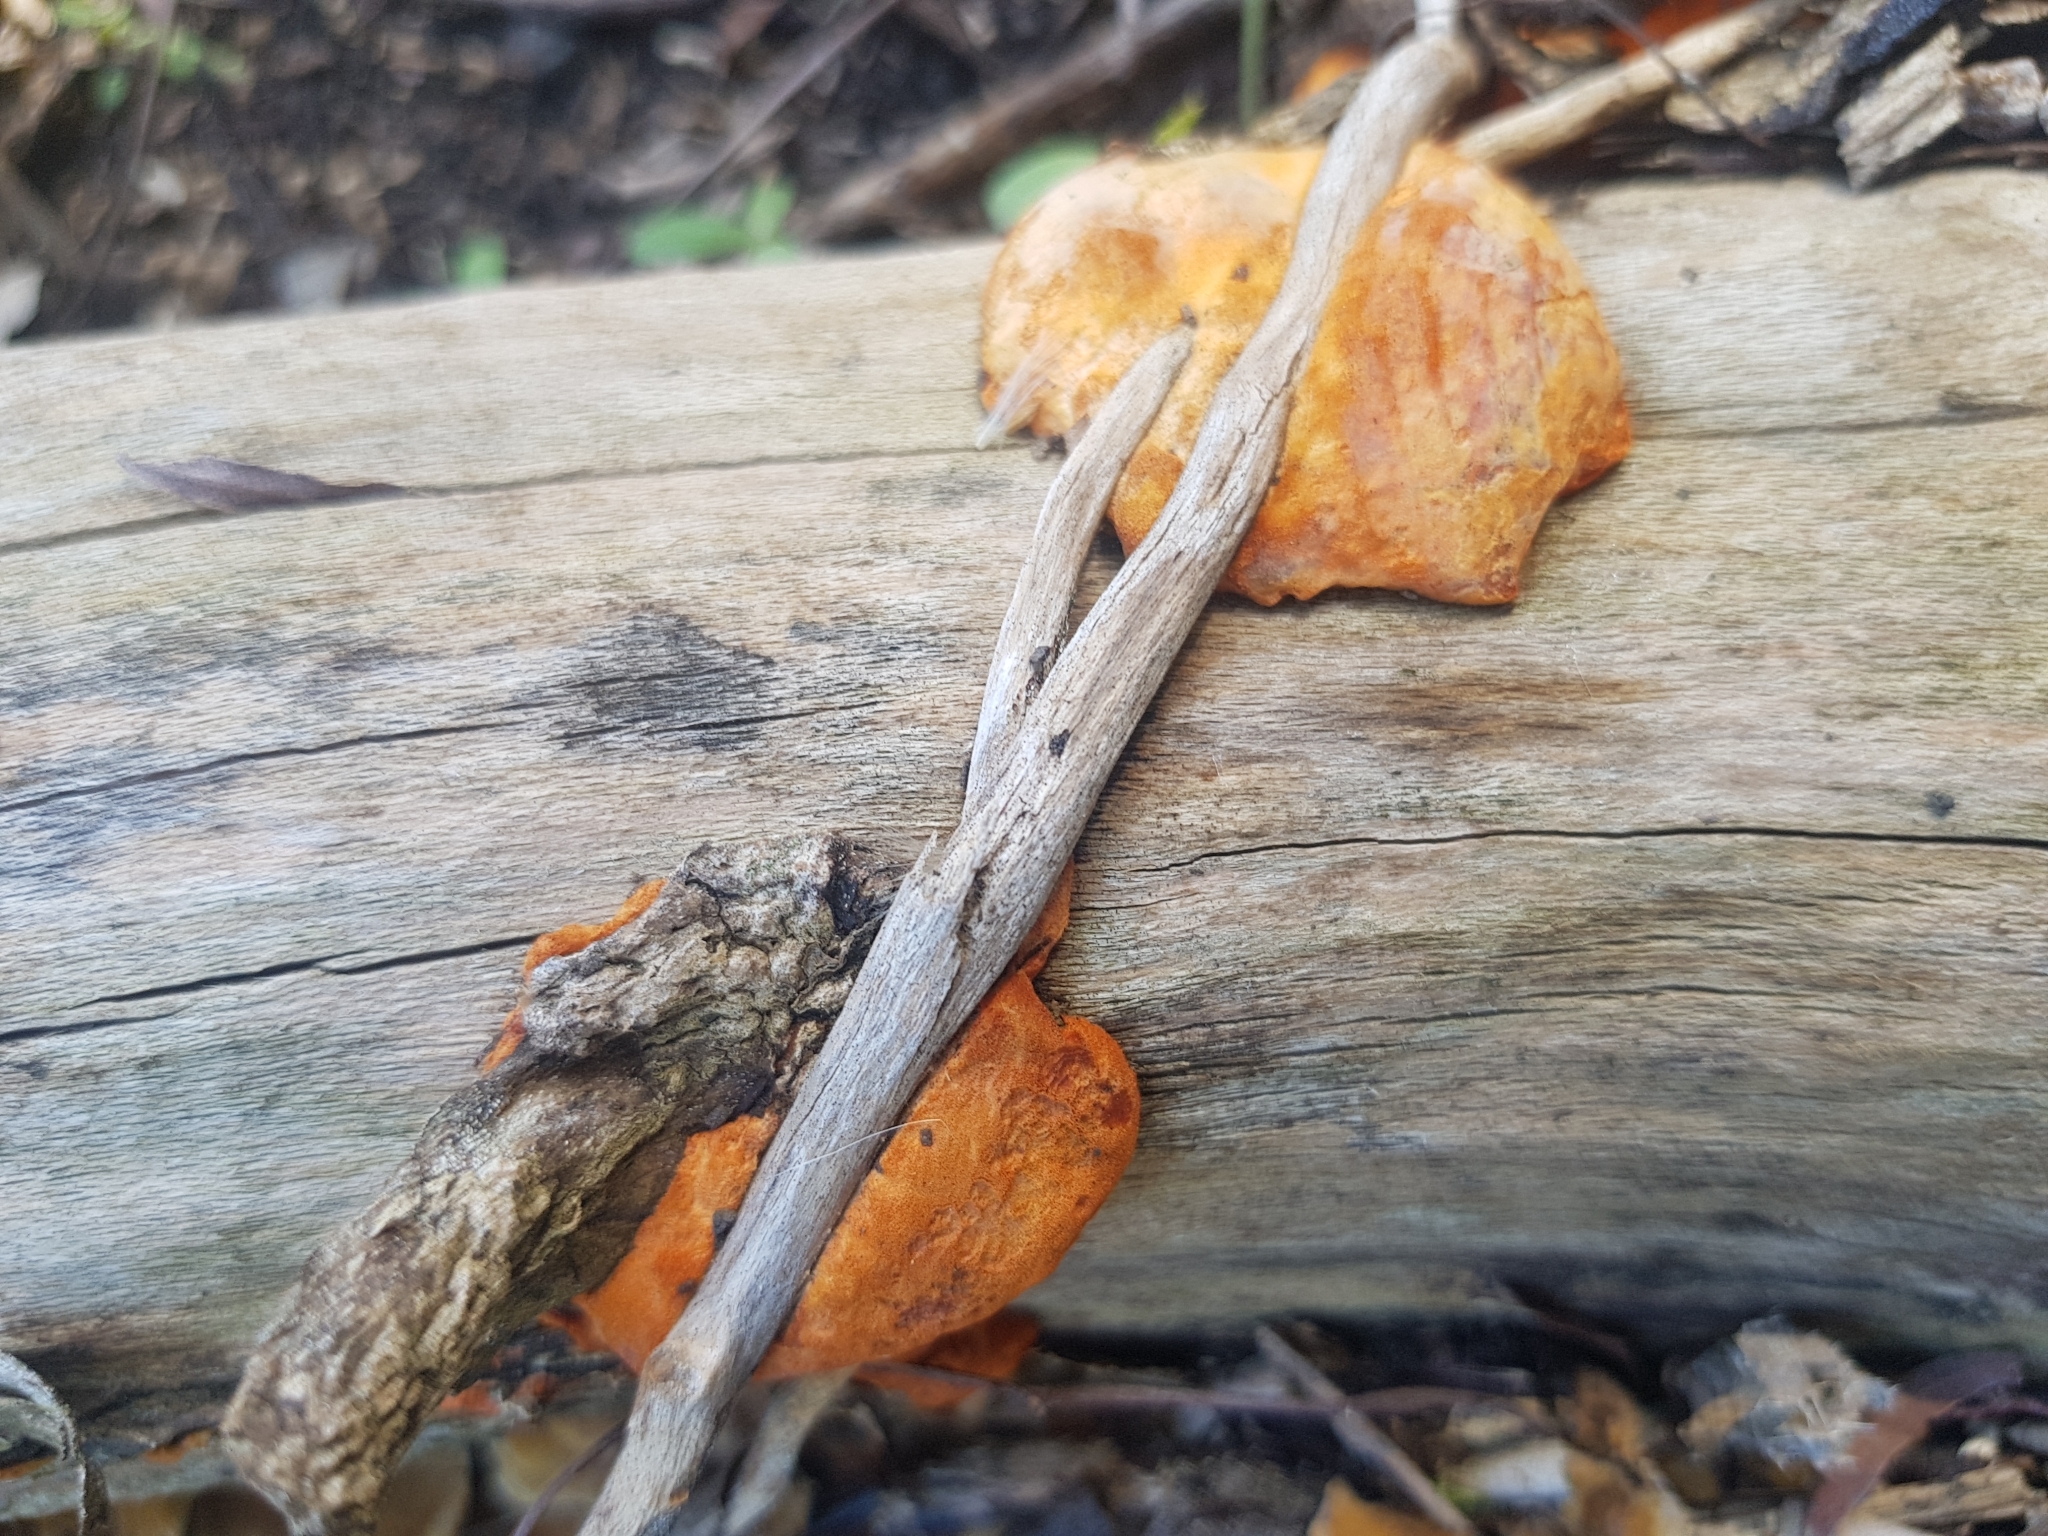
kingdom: Fungi
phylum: Basidiomycota
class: Agaricomycetes
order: Polyporales
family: Polyporaceae
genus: Trametes
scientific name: Trametes coccinea
